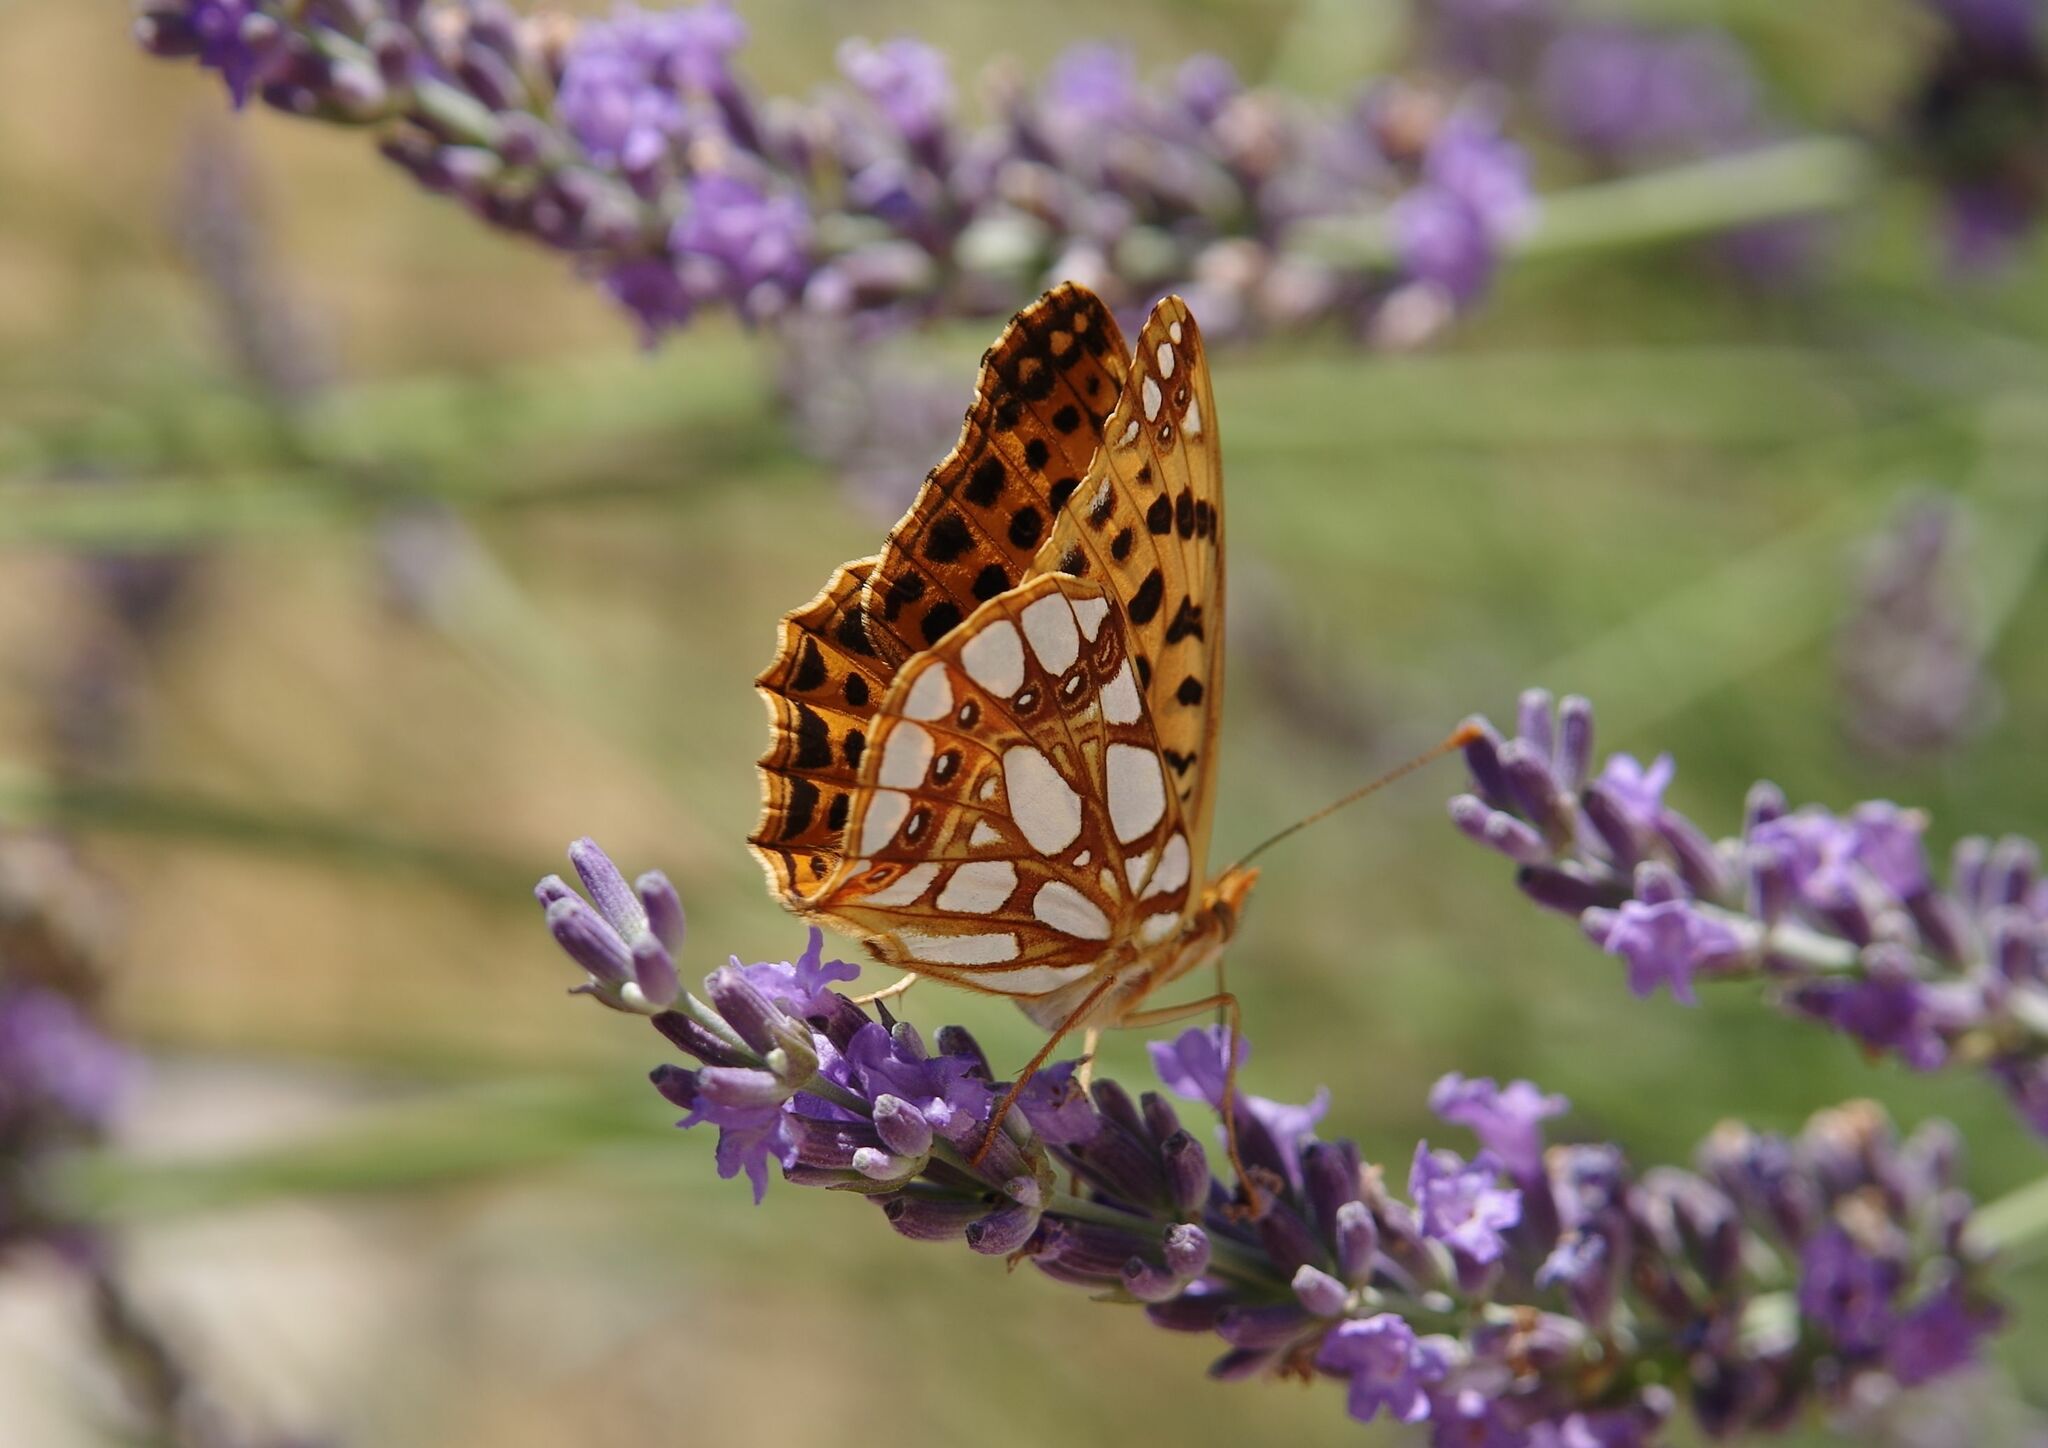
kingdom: Animalia
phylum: Arthropoda
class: Insecta
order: Lepidoptera
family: Nymphalidae
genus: Issoria
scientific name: Issoria lathonia
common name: Queen of spain fritillary
